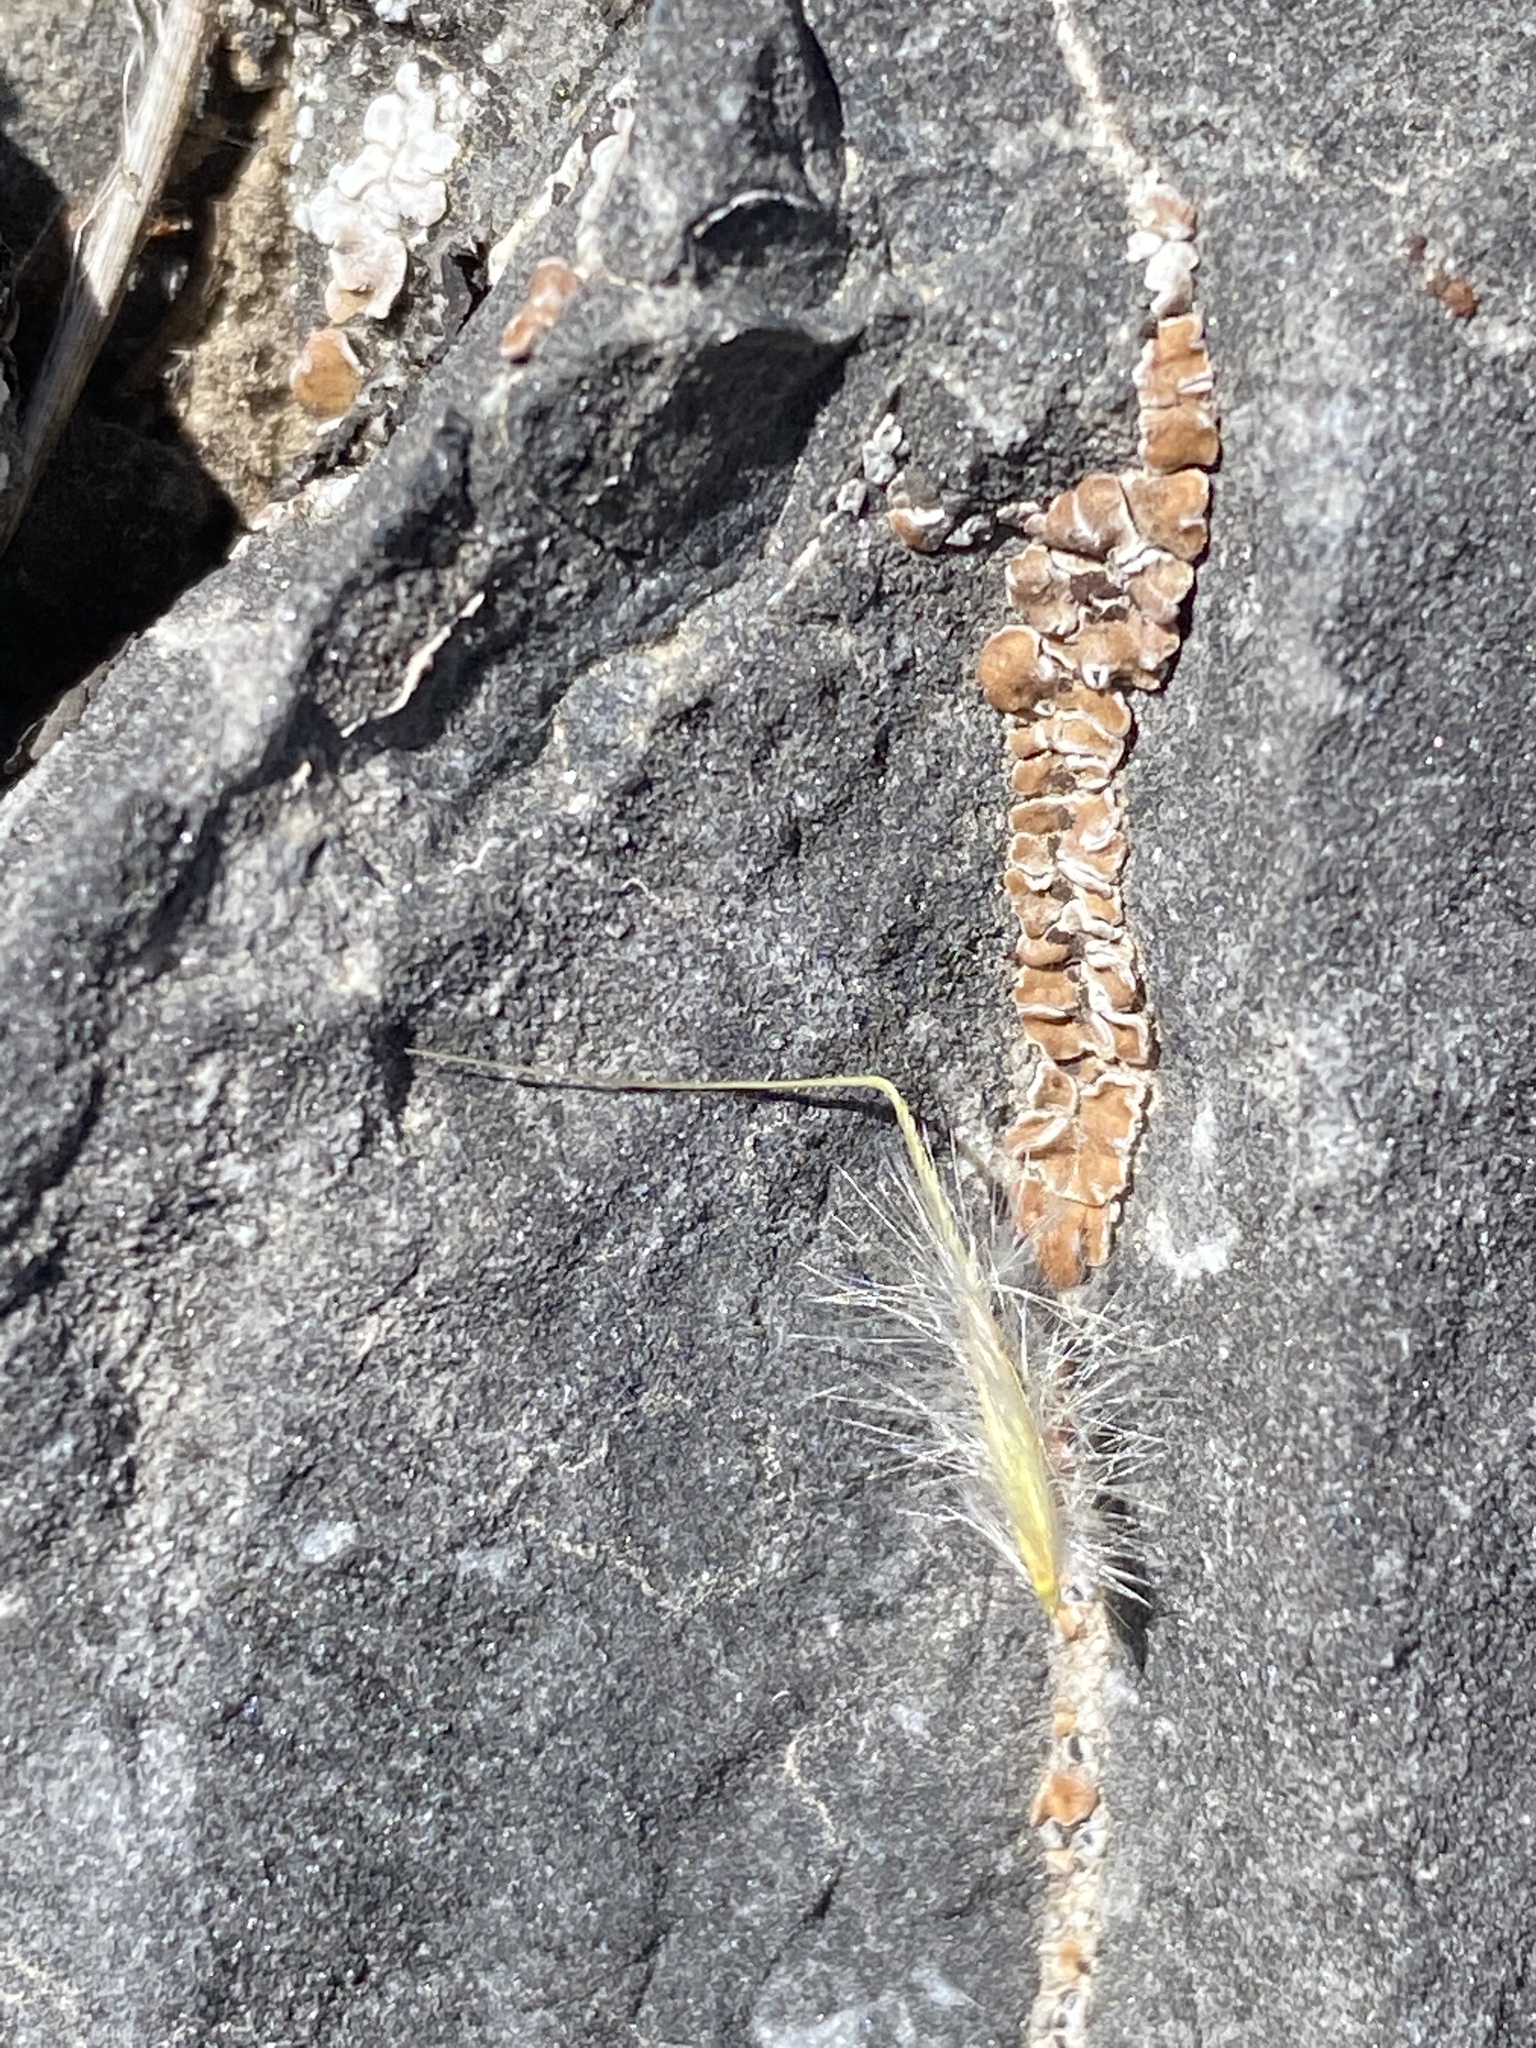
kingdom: Plantae
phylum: Tracheophyta
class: Liliopsida
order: Poales
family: Poaceae
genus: Eriocoma
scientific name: Eriocoma webberi
